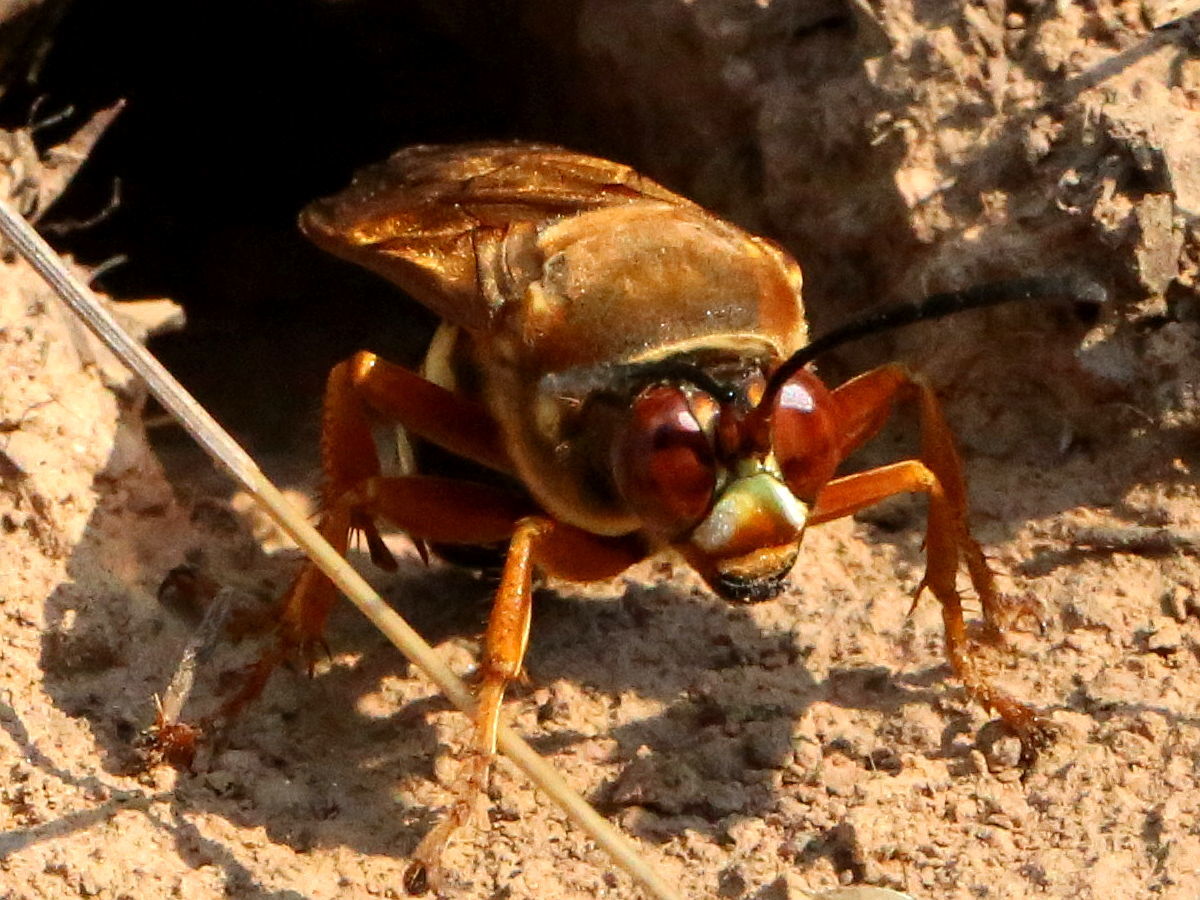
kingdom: Animalia
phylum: Arthropoda
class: Insecta
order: Hymenoptera
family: Crabronidae
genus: Sphecius
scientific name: Sphecius speciosus
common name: Cicada killer
